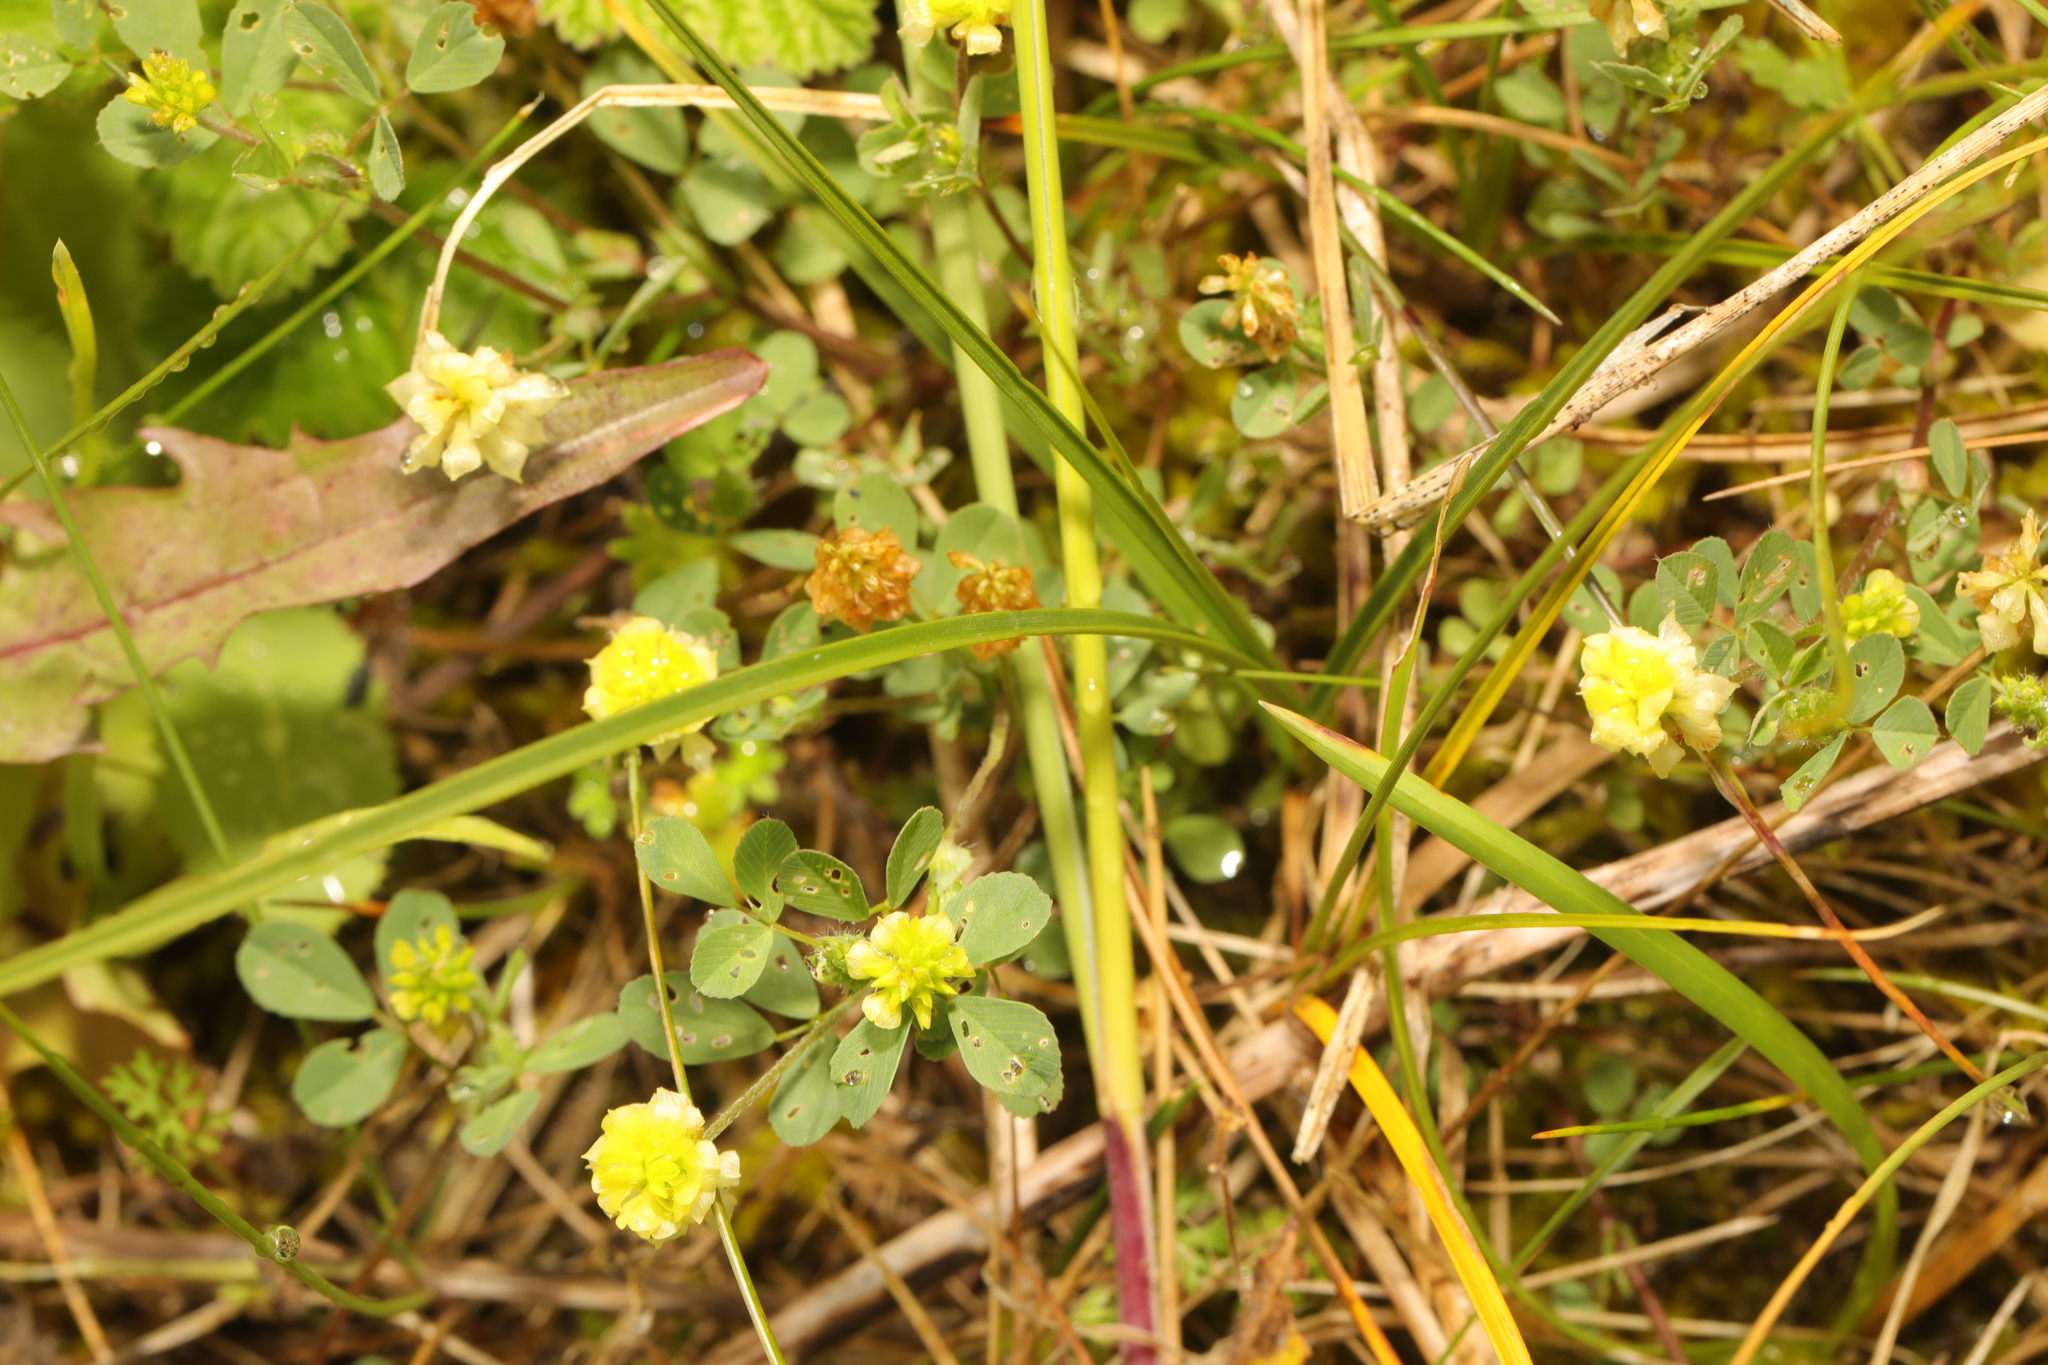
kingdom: Plantae
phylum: Tracheophyta
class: Magnoliopsida
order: Fabales
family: Fabaceae
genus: Trifolium
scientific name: Trifolium campestre
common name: Field clover
